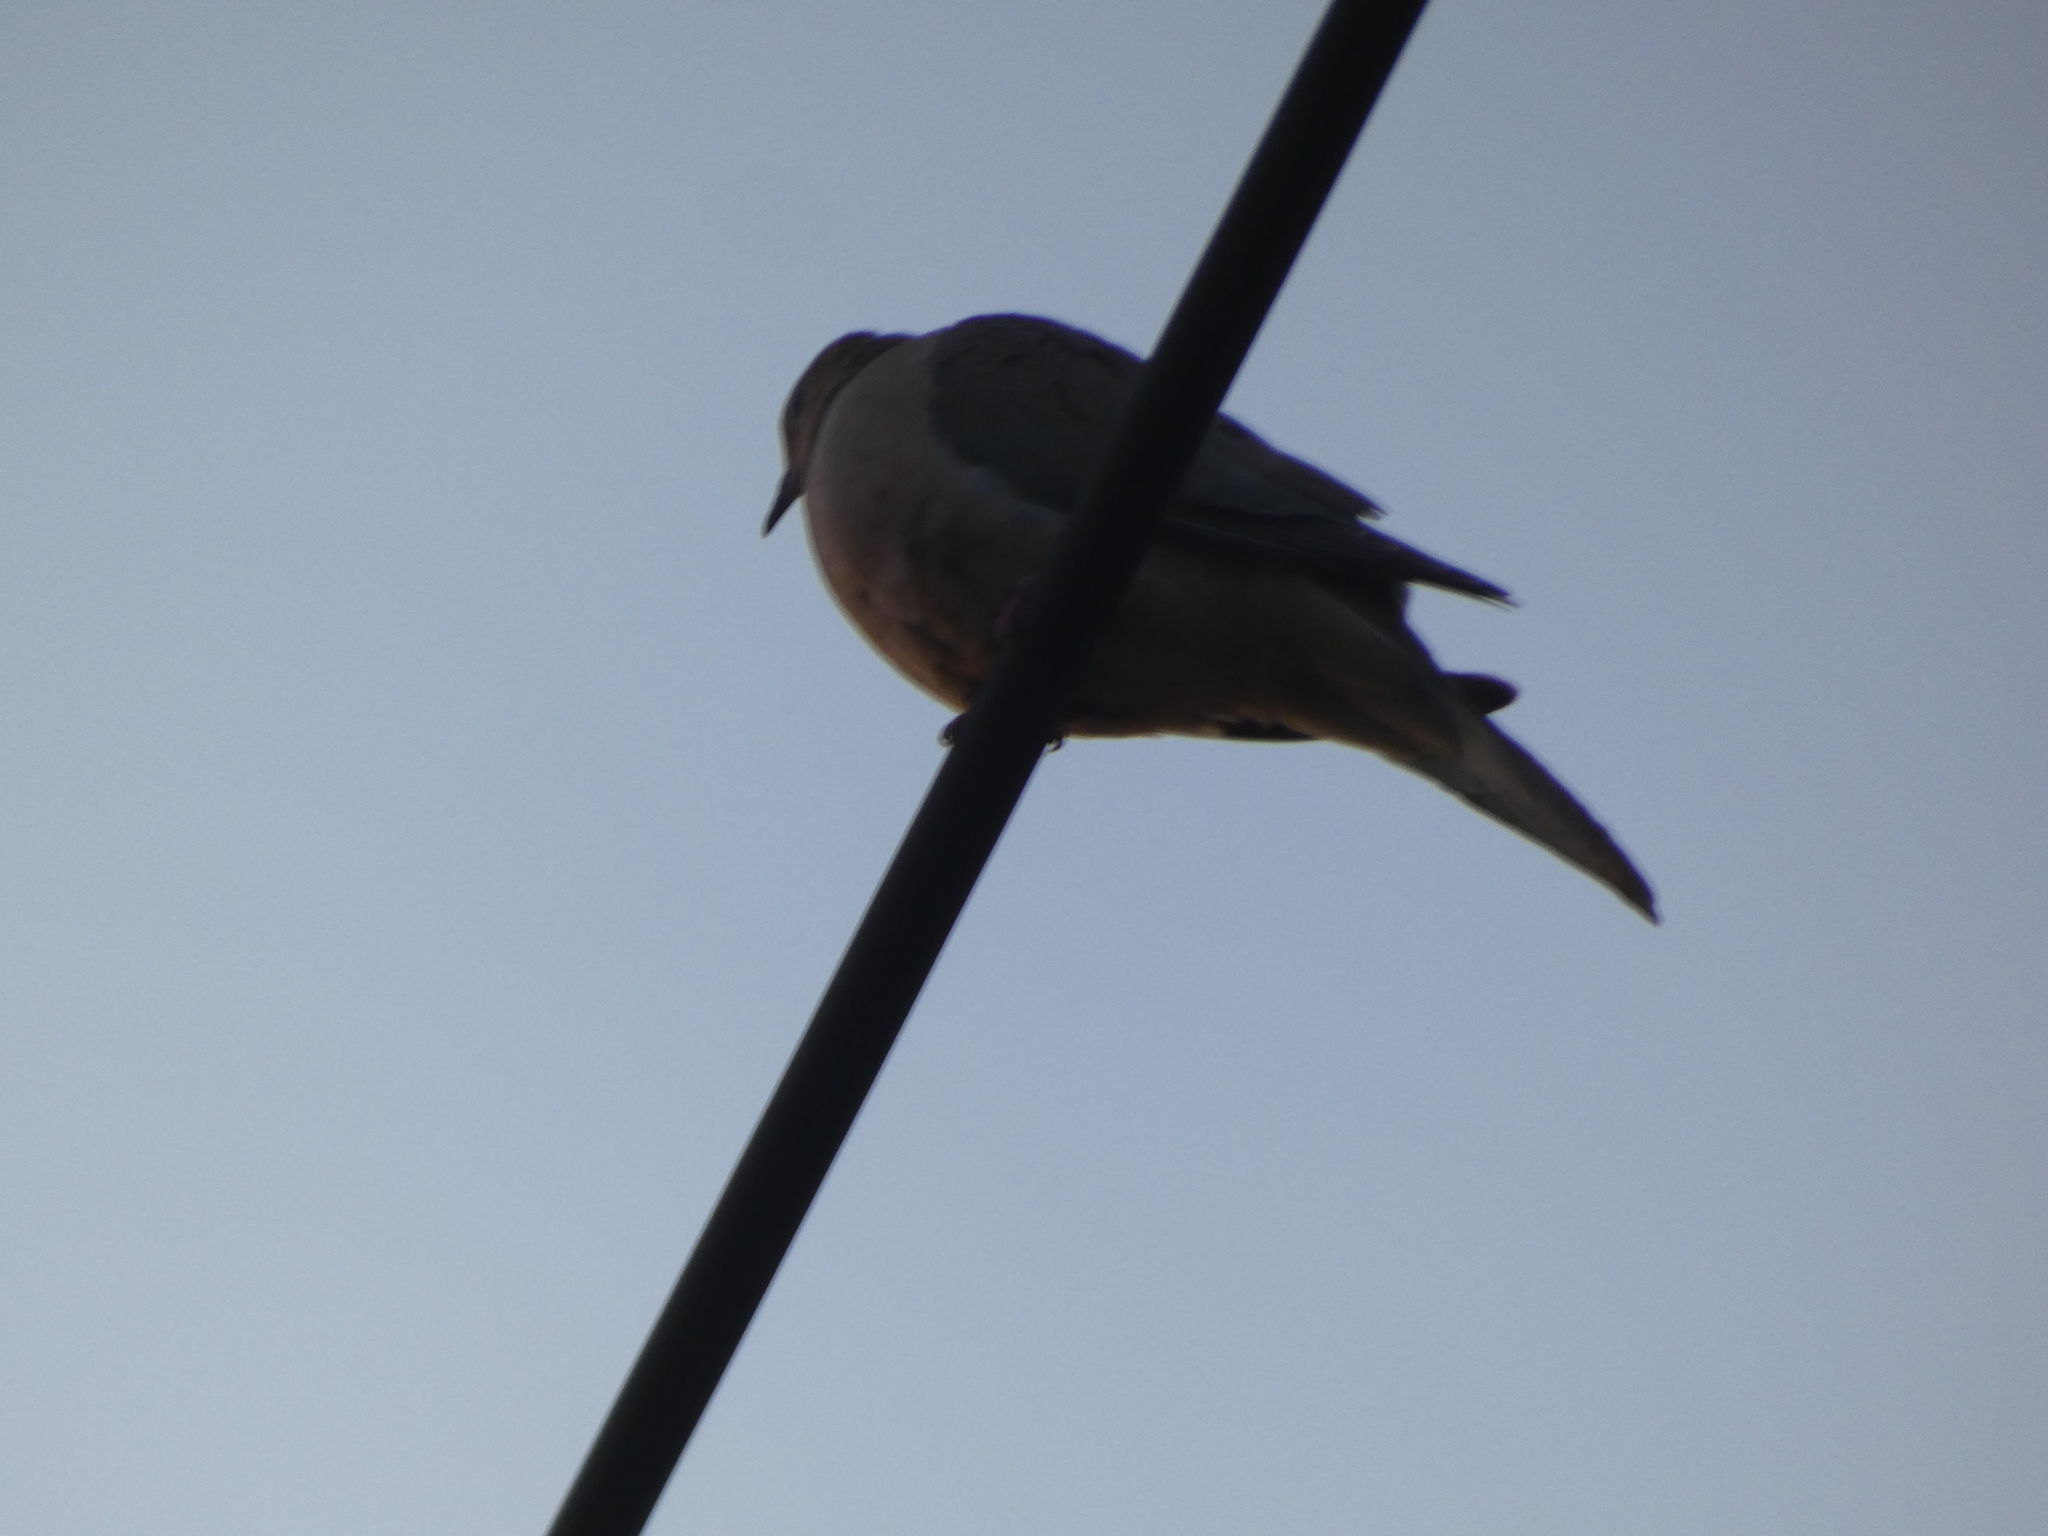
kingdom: Animalia
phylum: Chordata
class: Aves
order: Columbiformes
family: Columbidae
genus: Zenaida
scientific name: Zenaida macroura
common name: Mourning dove
